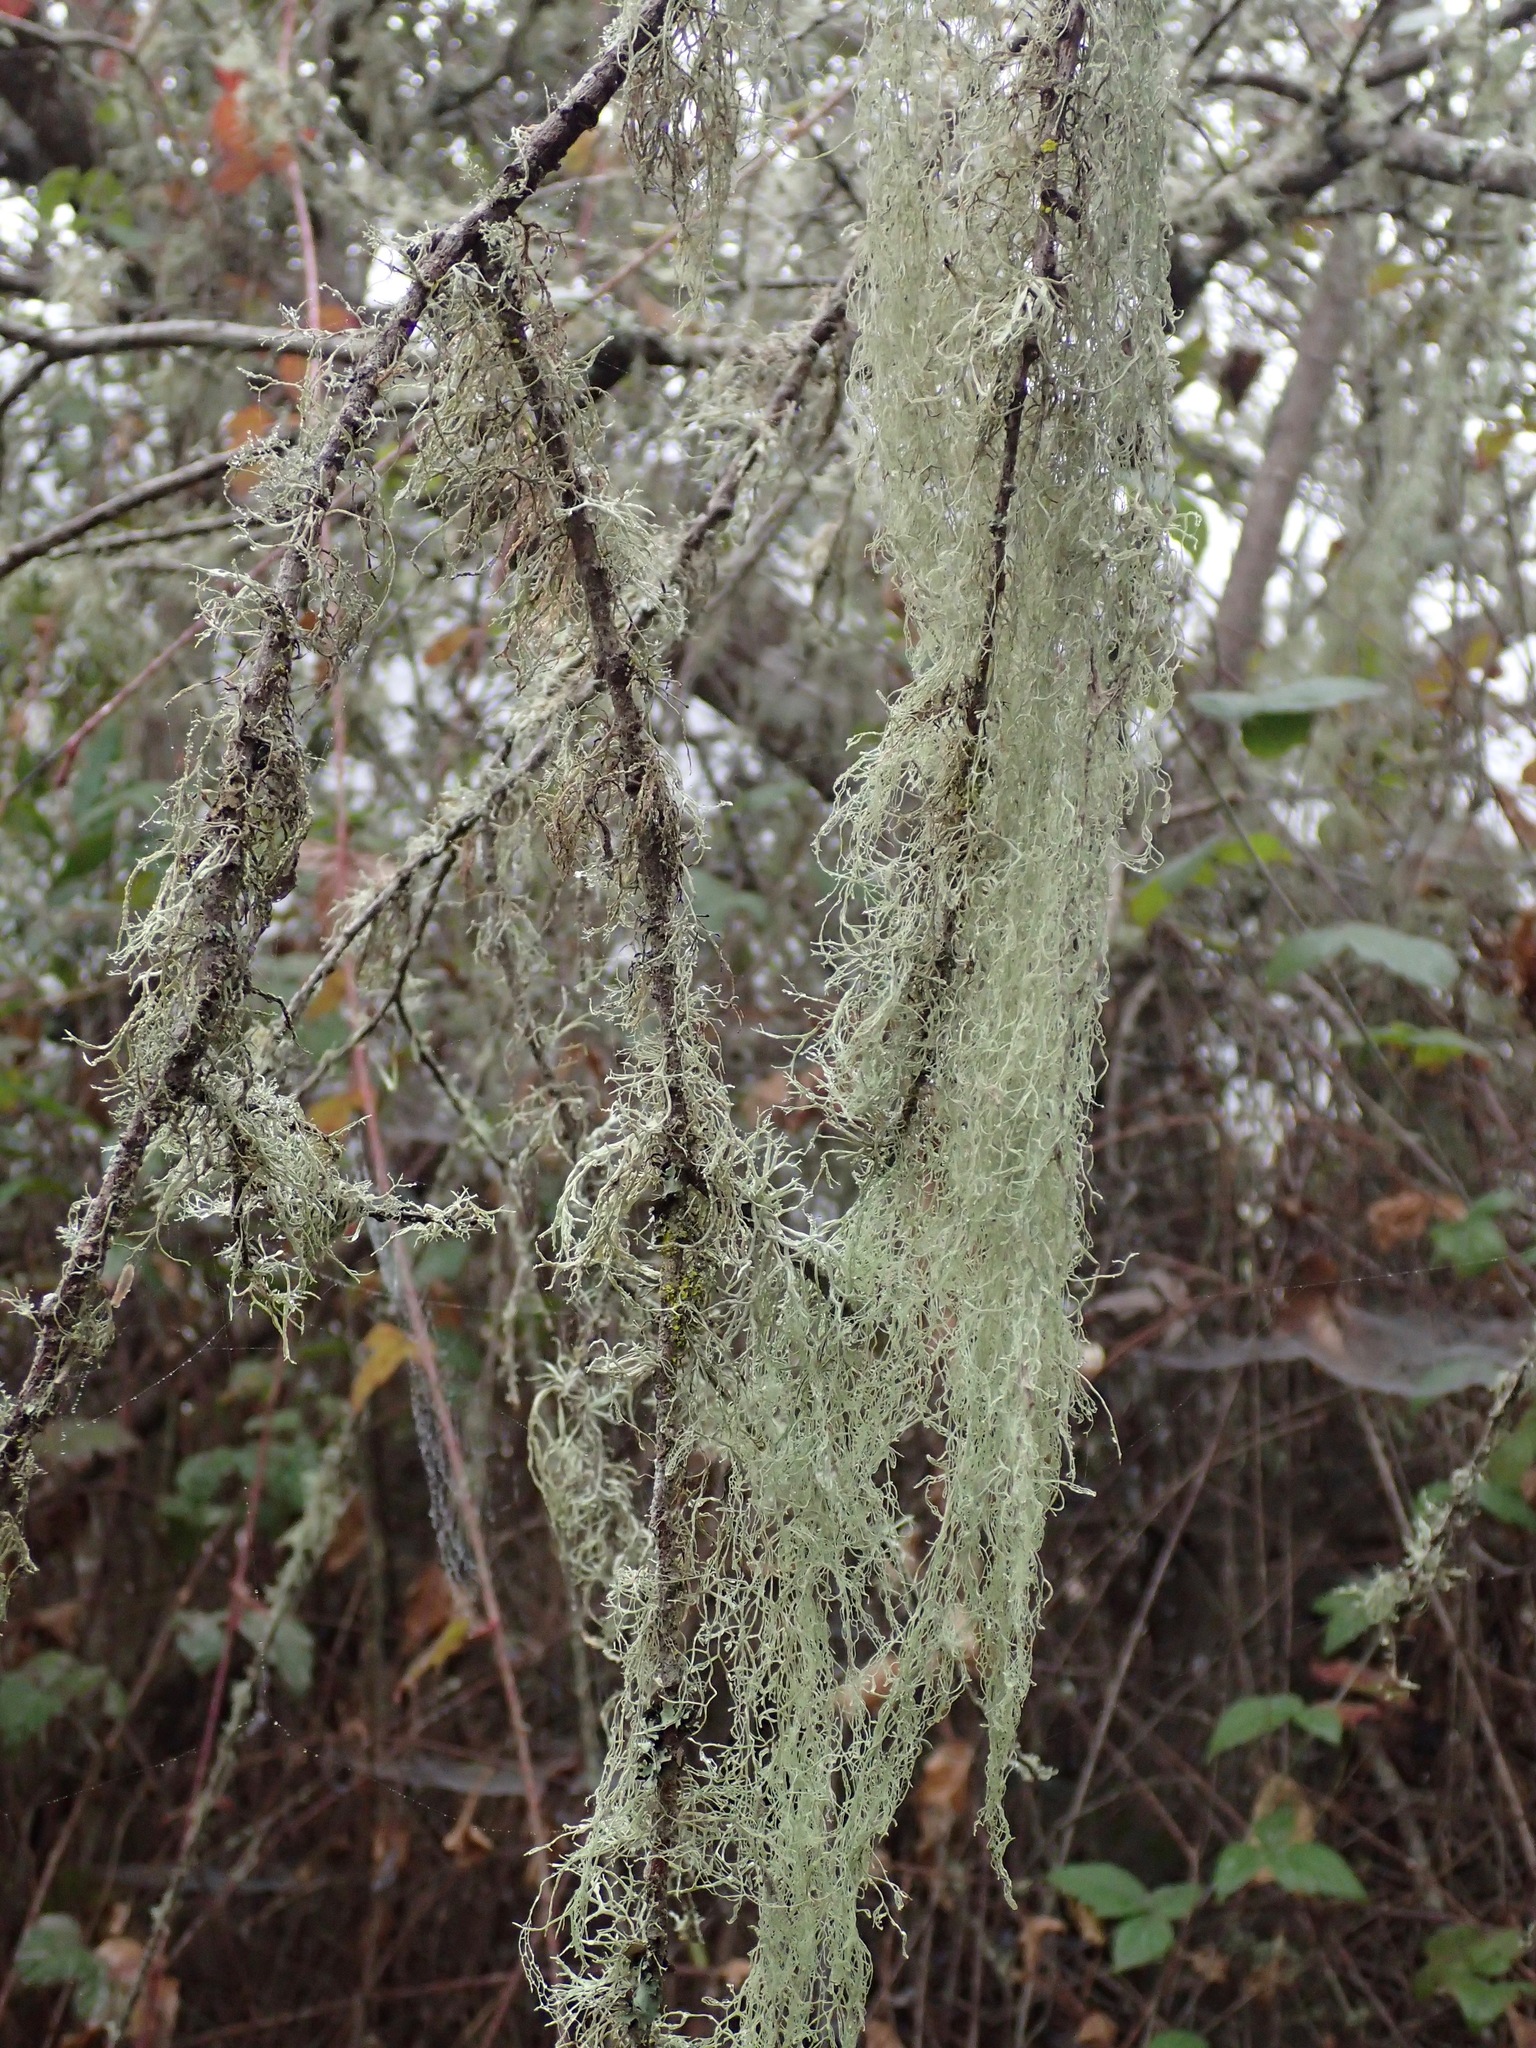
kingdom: Fungi
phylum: Ascomycota
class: Lecanoromycetes
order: Lecanorales
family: Ramalinaceae
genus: Ramalina
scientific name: Ramalina menziesii
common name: Lace lichen
